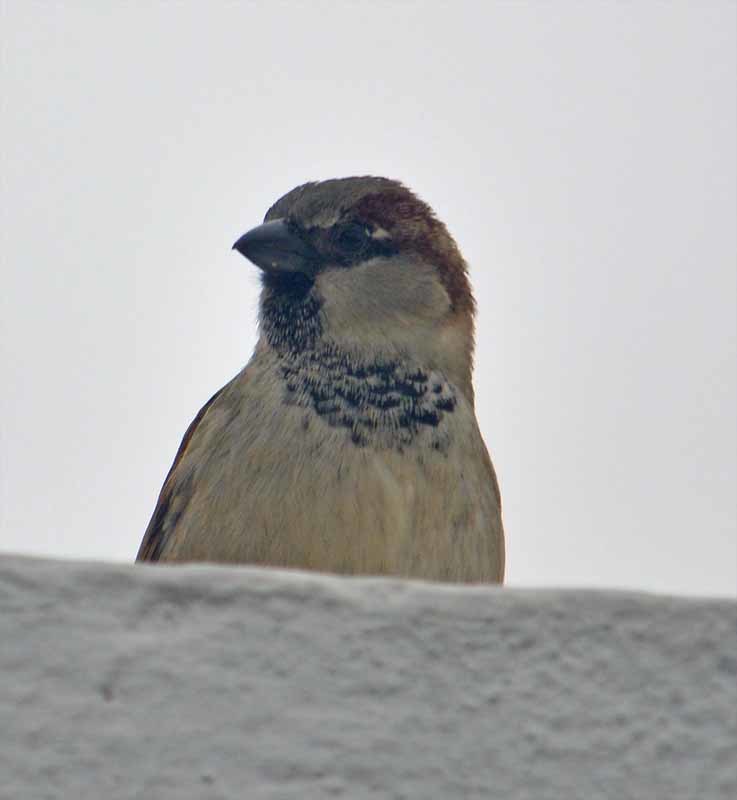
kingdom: Animalia
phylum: Chordata
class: Aves
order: Passeriformes
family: Passeridae
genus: Passer
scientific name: Passer domesticus
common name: House sparrow
